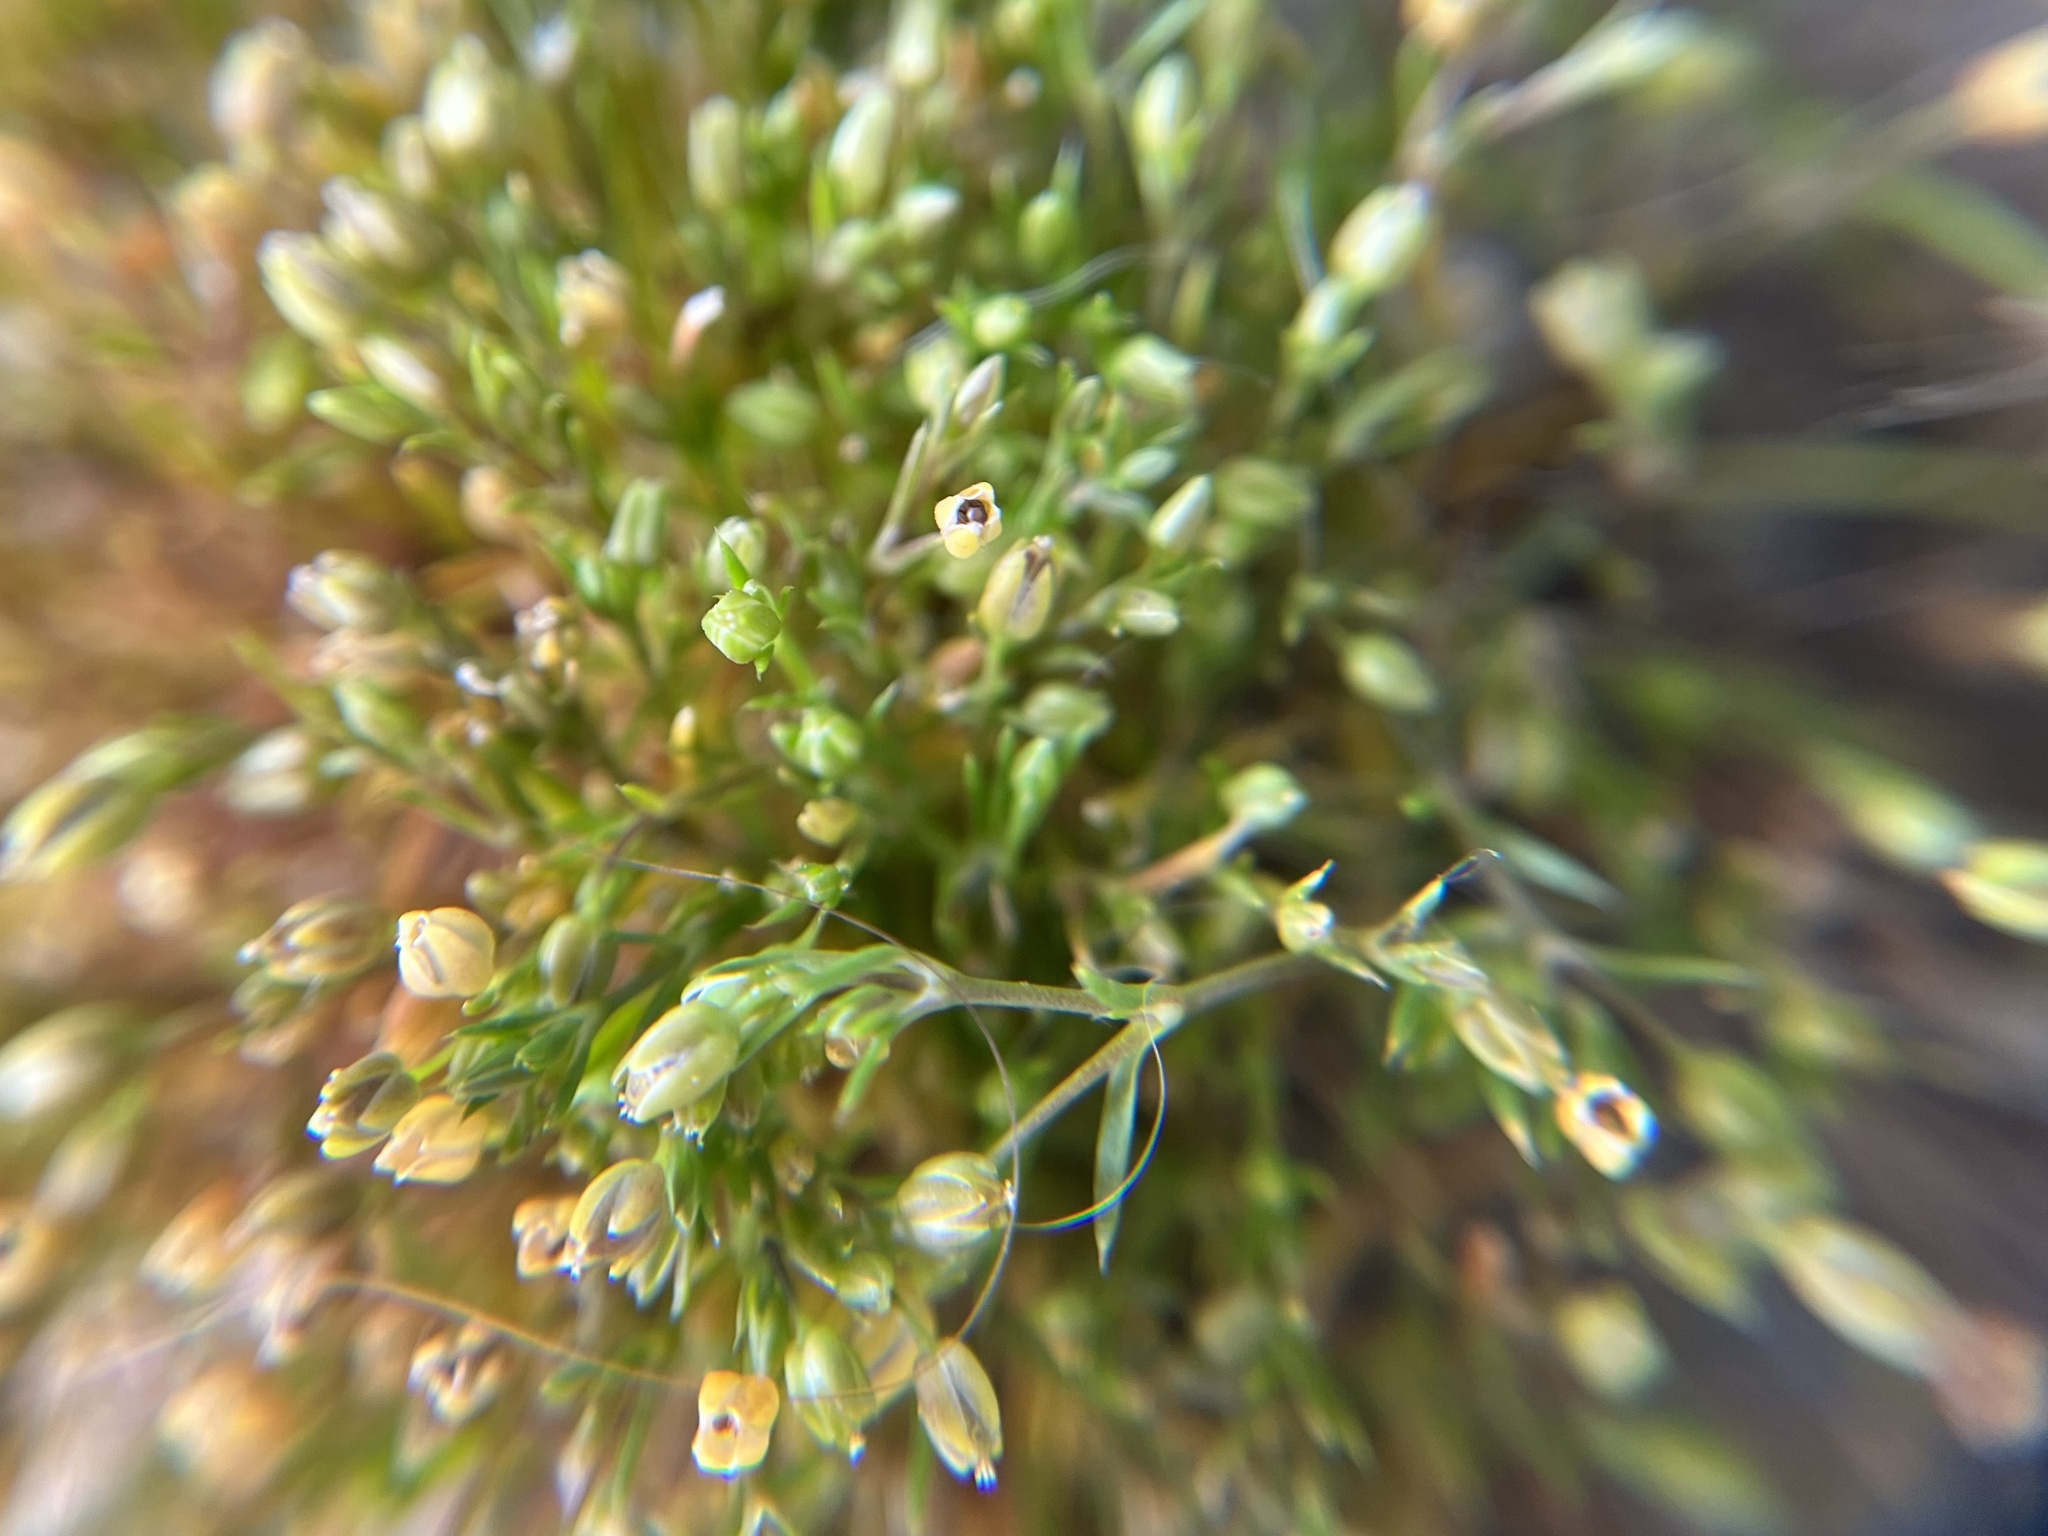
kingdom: Plantae
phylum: Tracheophyta
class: Magnoliopsida
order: Caryophyllales
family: Caryophyllaceae
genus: Sagina
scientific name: Sagina apetala
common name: Annual pearlwort
